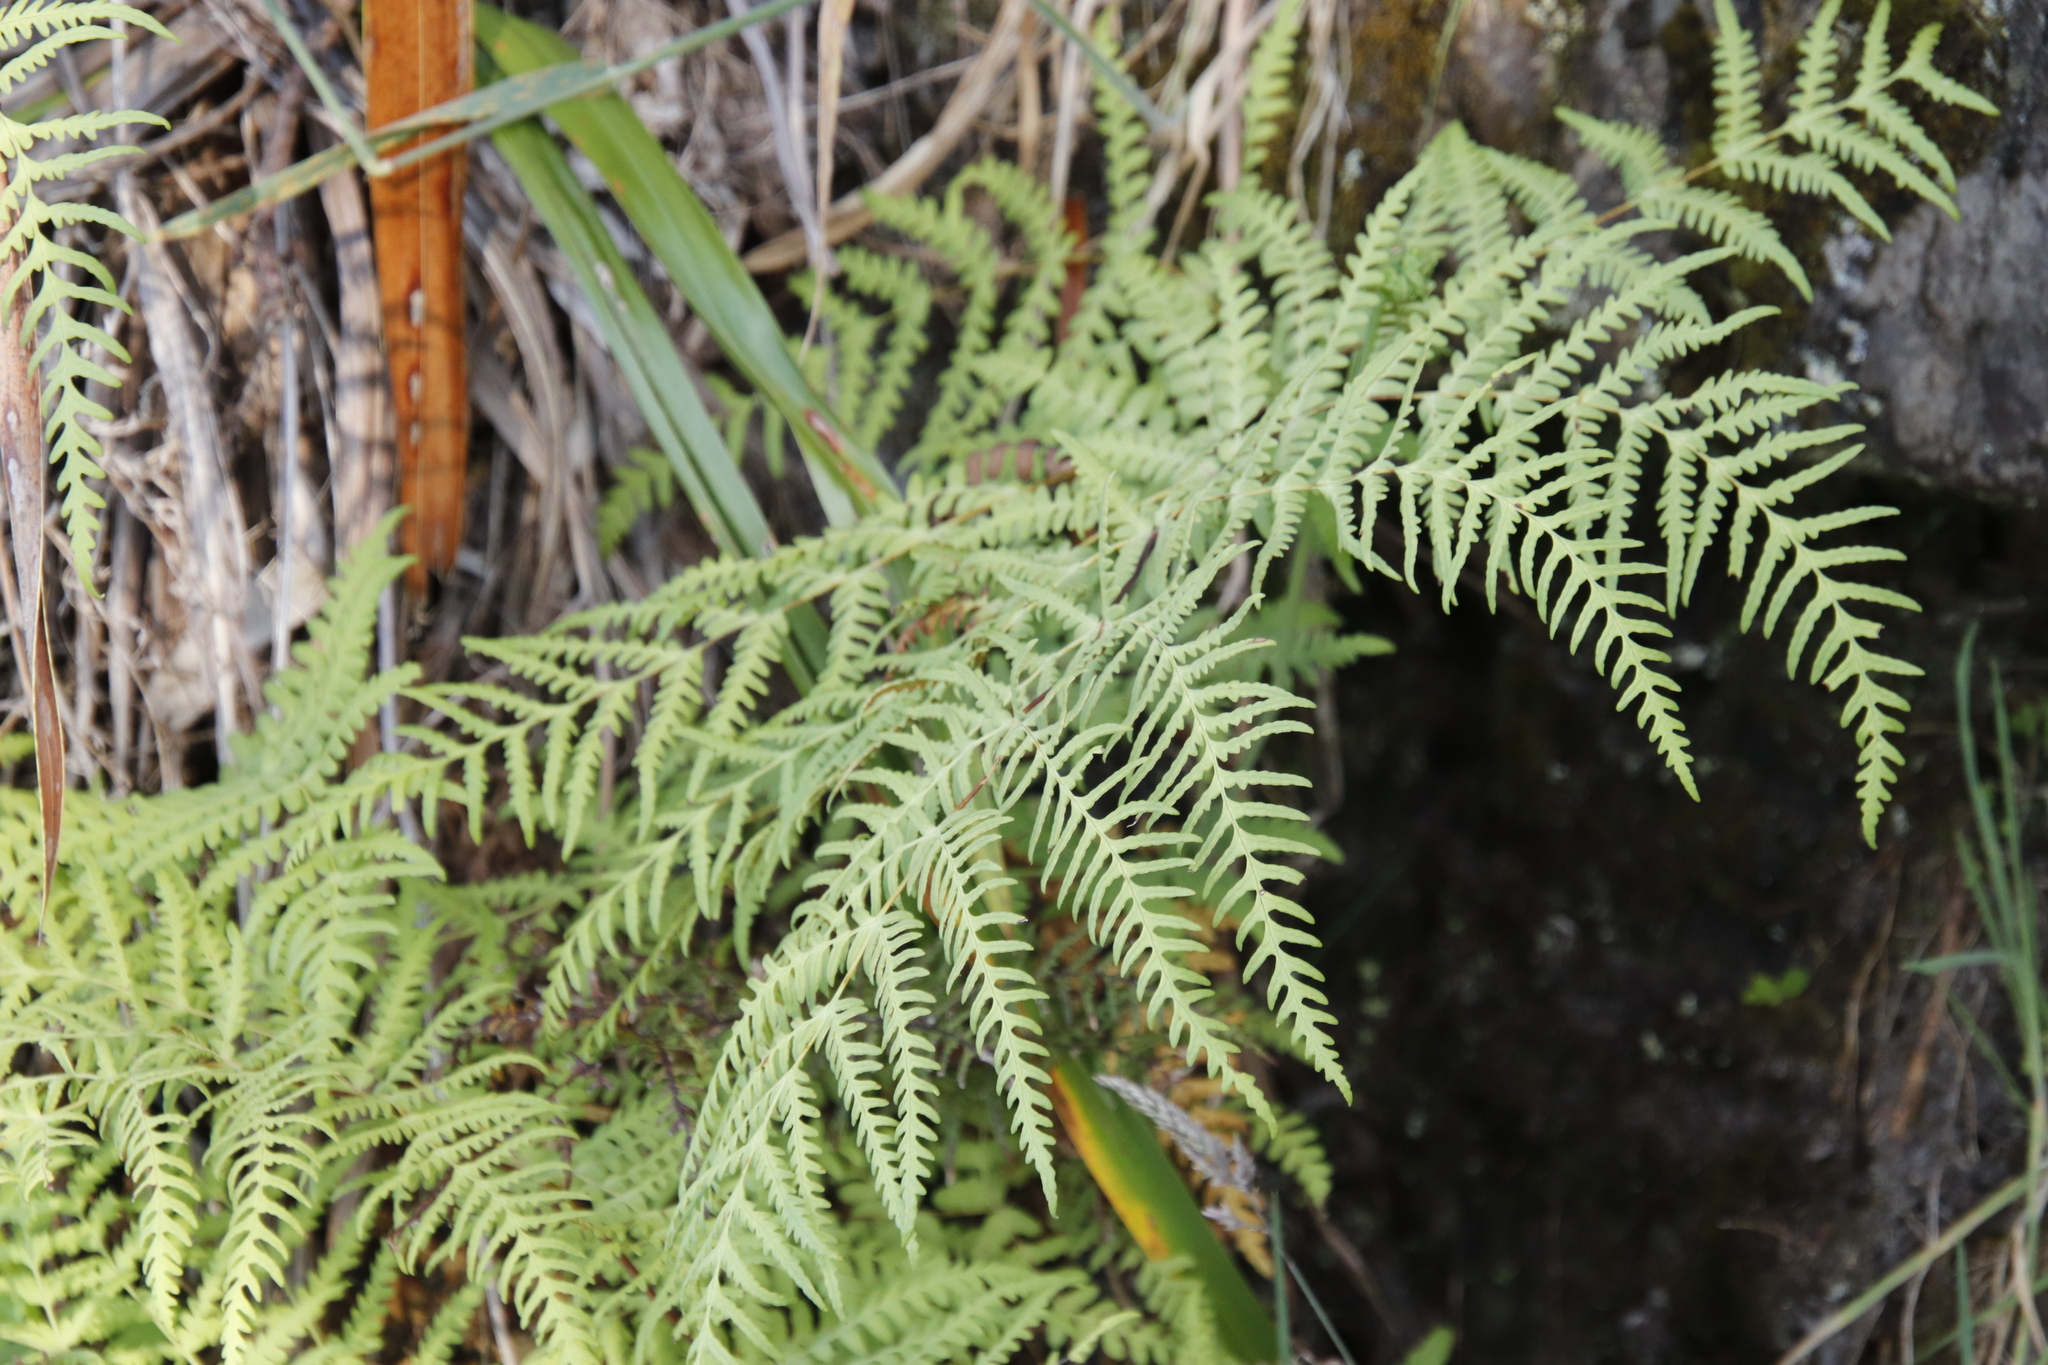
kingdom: Plantae
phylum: Tracheophyta
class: Polypodiopsida
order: Polypodiales
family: Dennstaedtiaceae
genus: Histiopteris
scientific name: Histiopteris incisa
